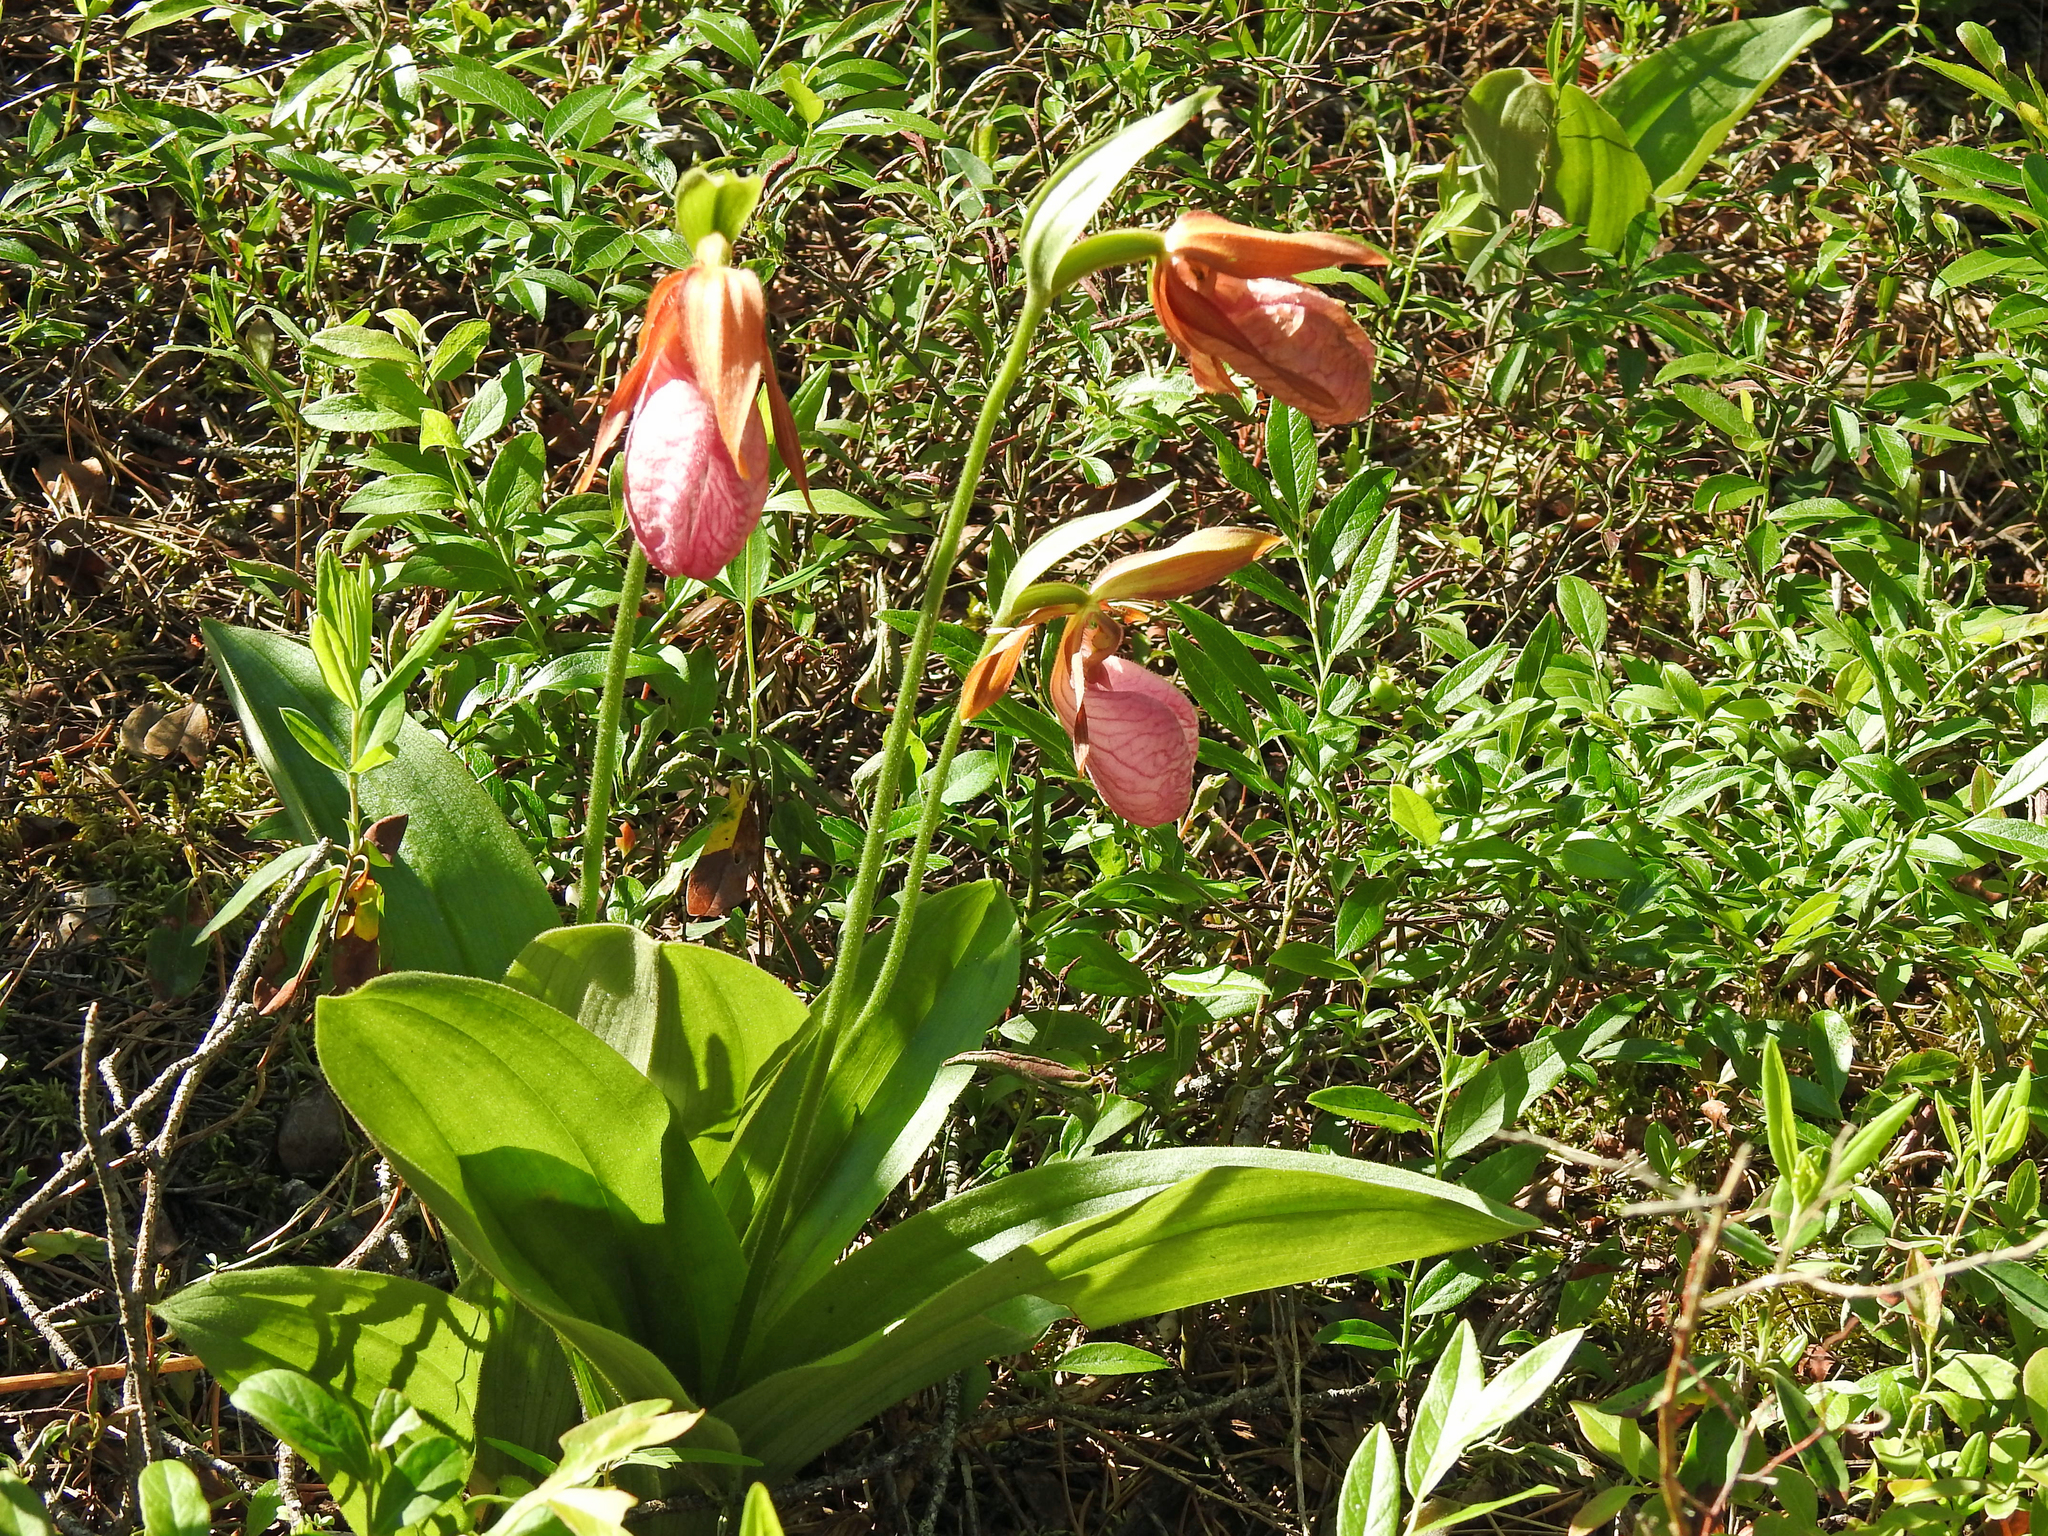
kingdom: Plantae
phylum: Tracheophyta
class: Liliopsida
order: Asparagales
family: Orchidaceae
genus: Cypripedium
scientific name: Cypripedium acaule
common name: Pink lady's-slipper
